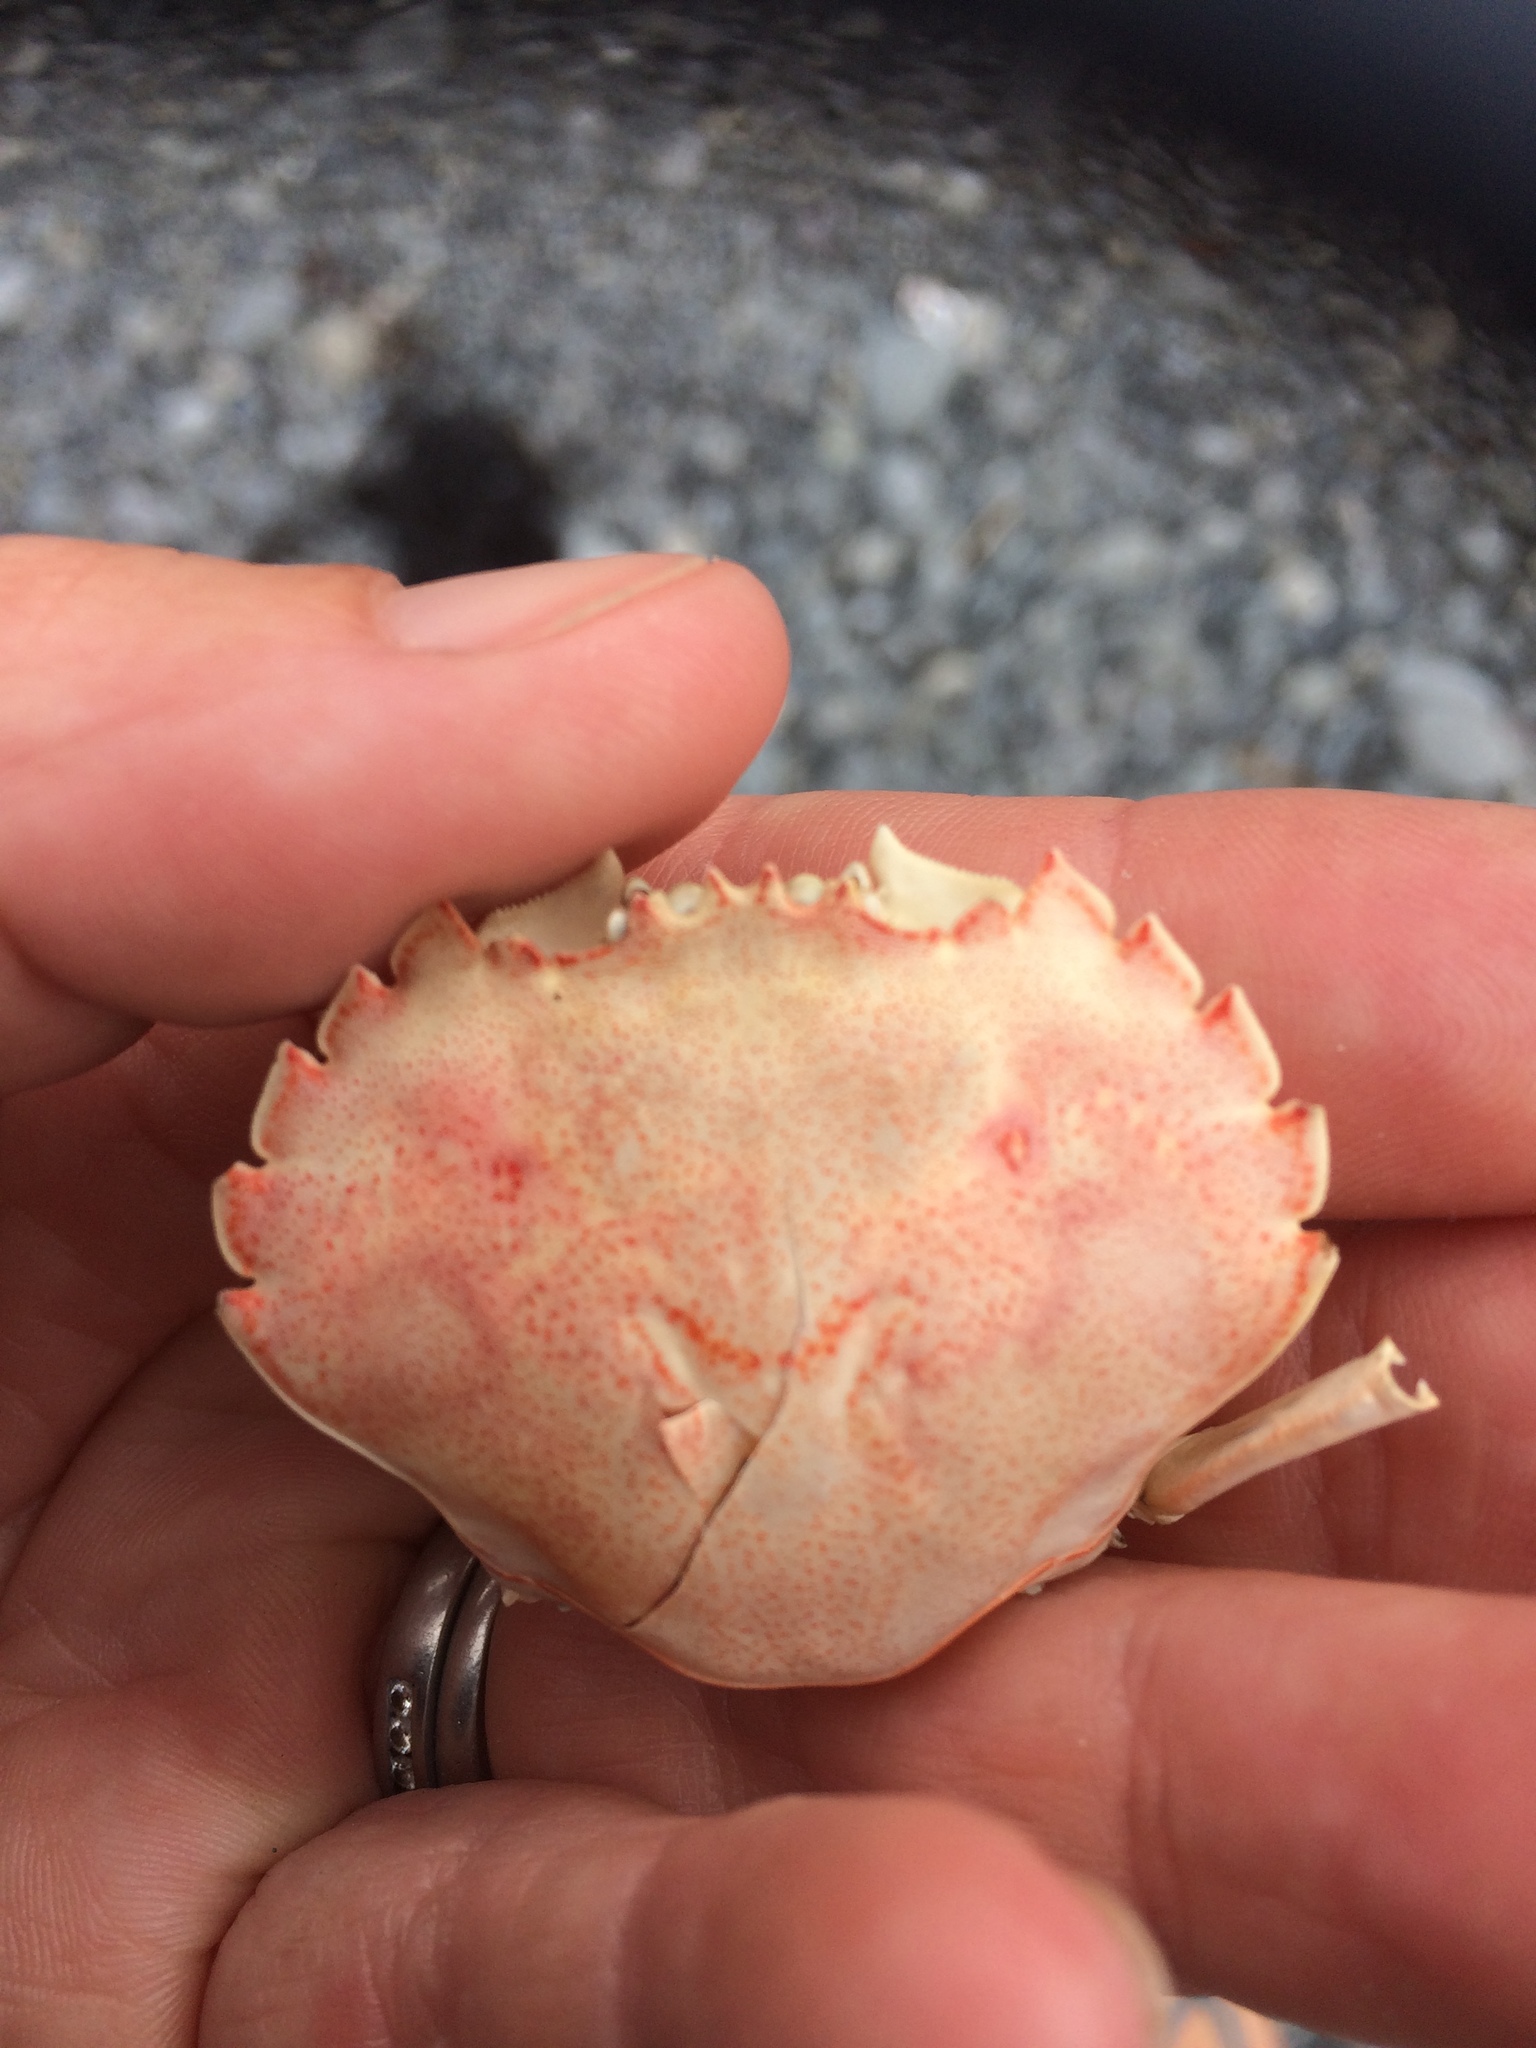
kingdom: Animalia
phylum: Arthropoda
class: Malacostraca
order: Decapoda
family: Ovalipidae
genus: Ovalipes
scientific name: Ovalipes catharus
